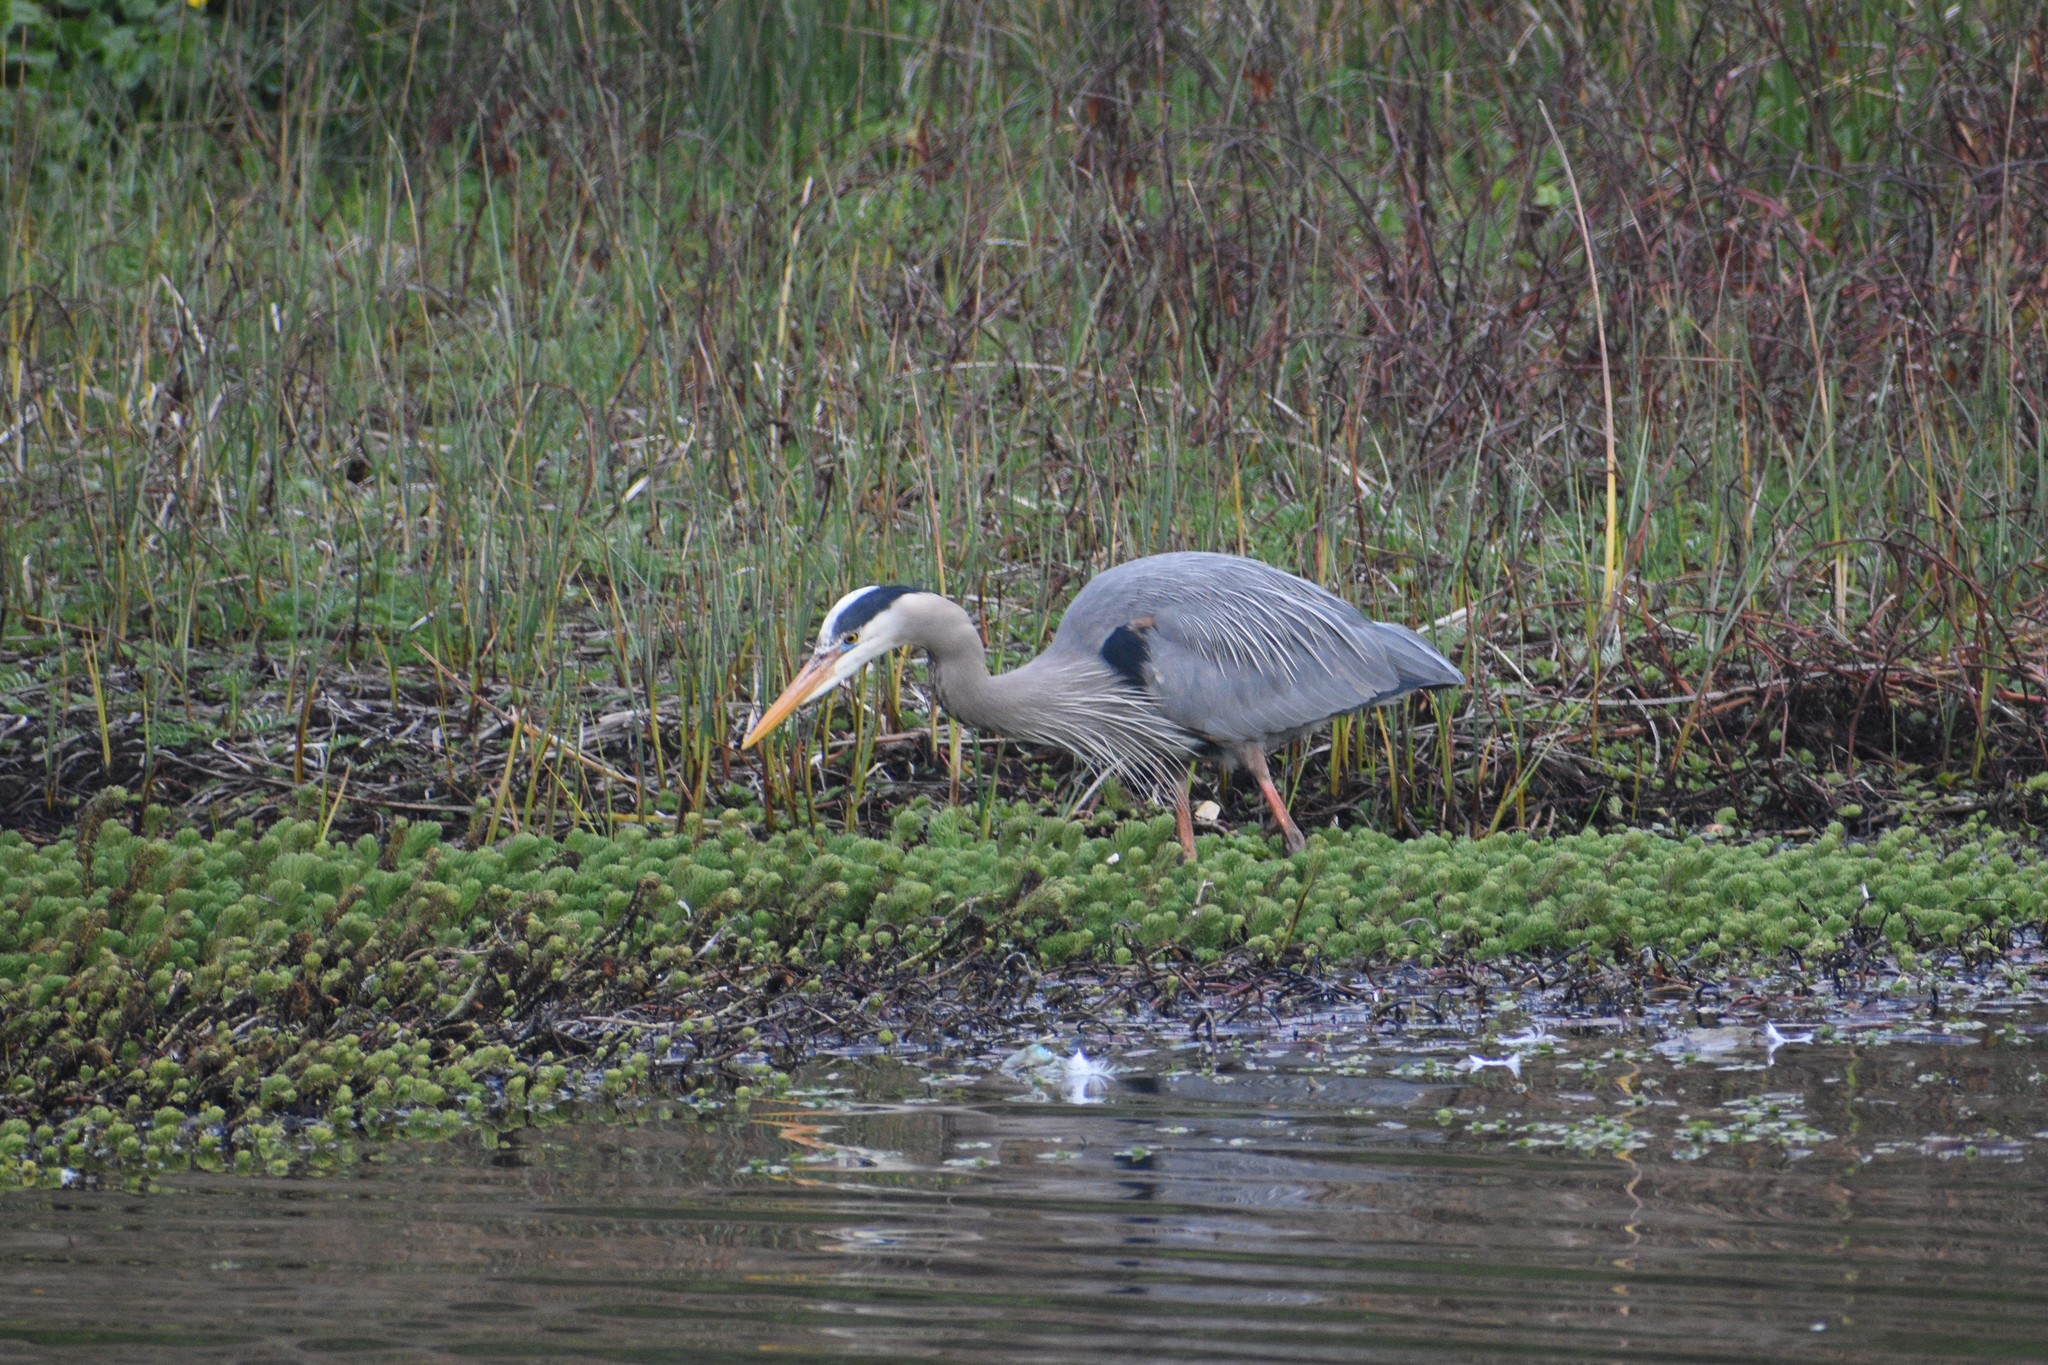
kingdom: Animalia
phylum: Chordata
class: Aves
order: Pelecaniformes
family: Ardeidae
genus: Ardea
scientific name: Ardea herodias
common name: Great blue heron
